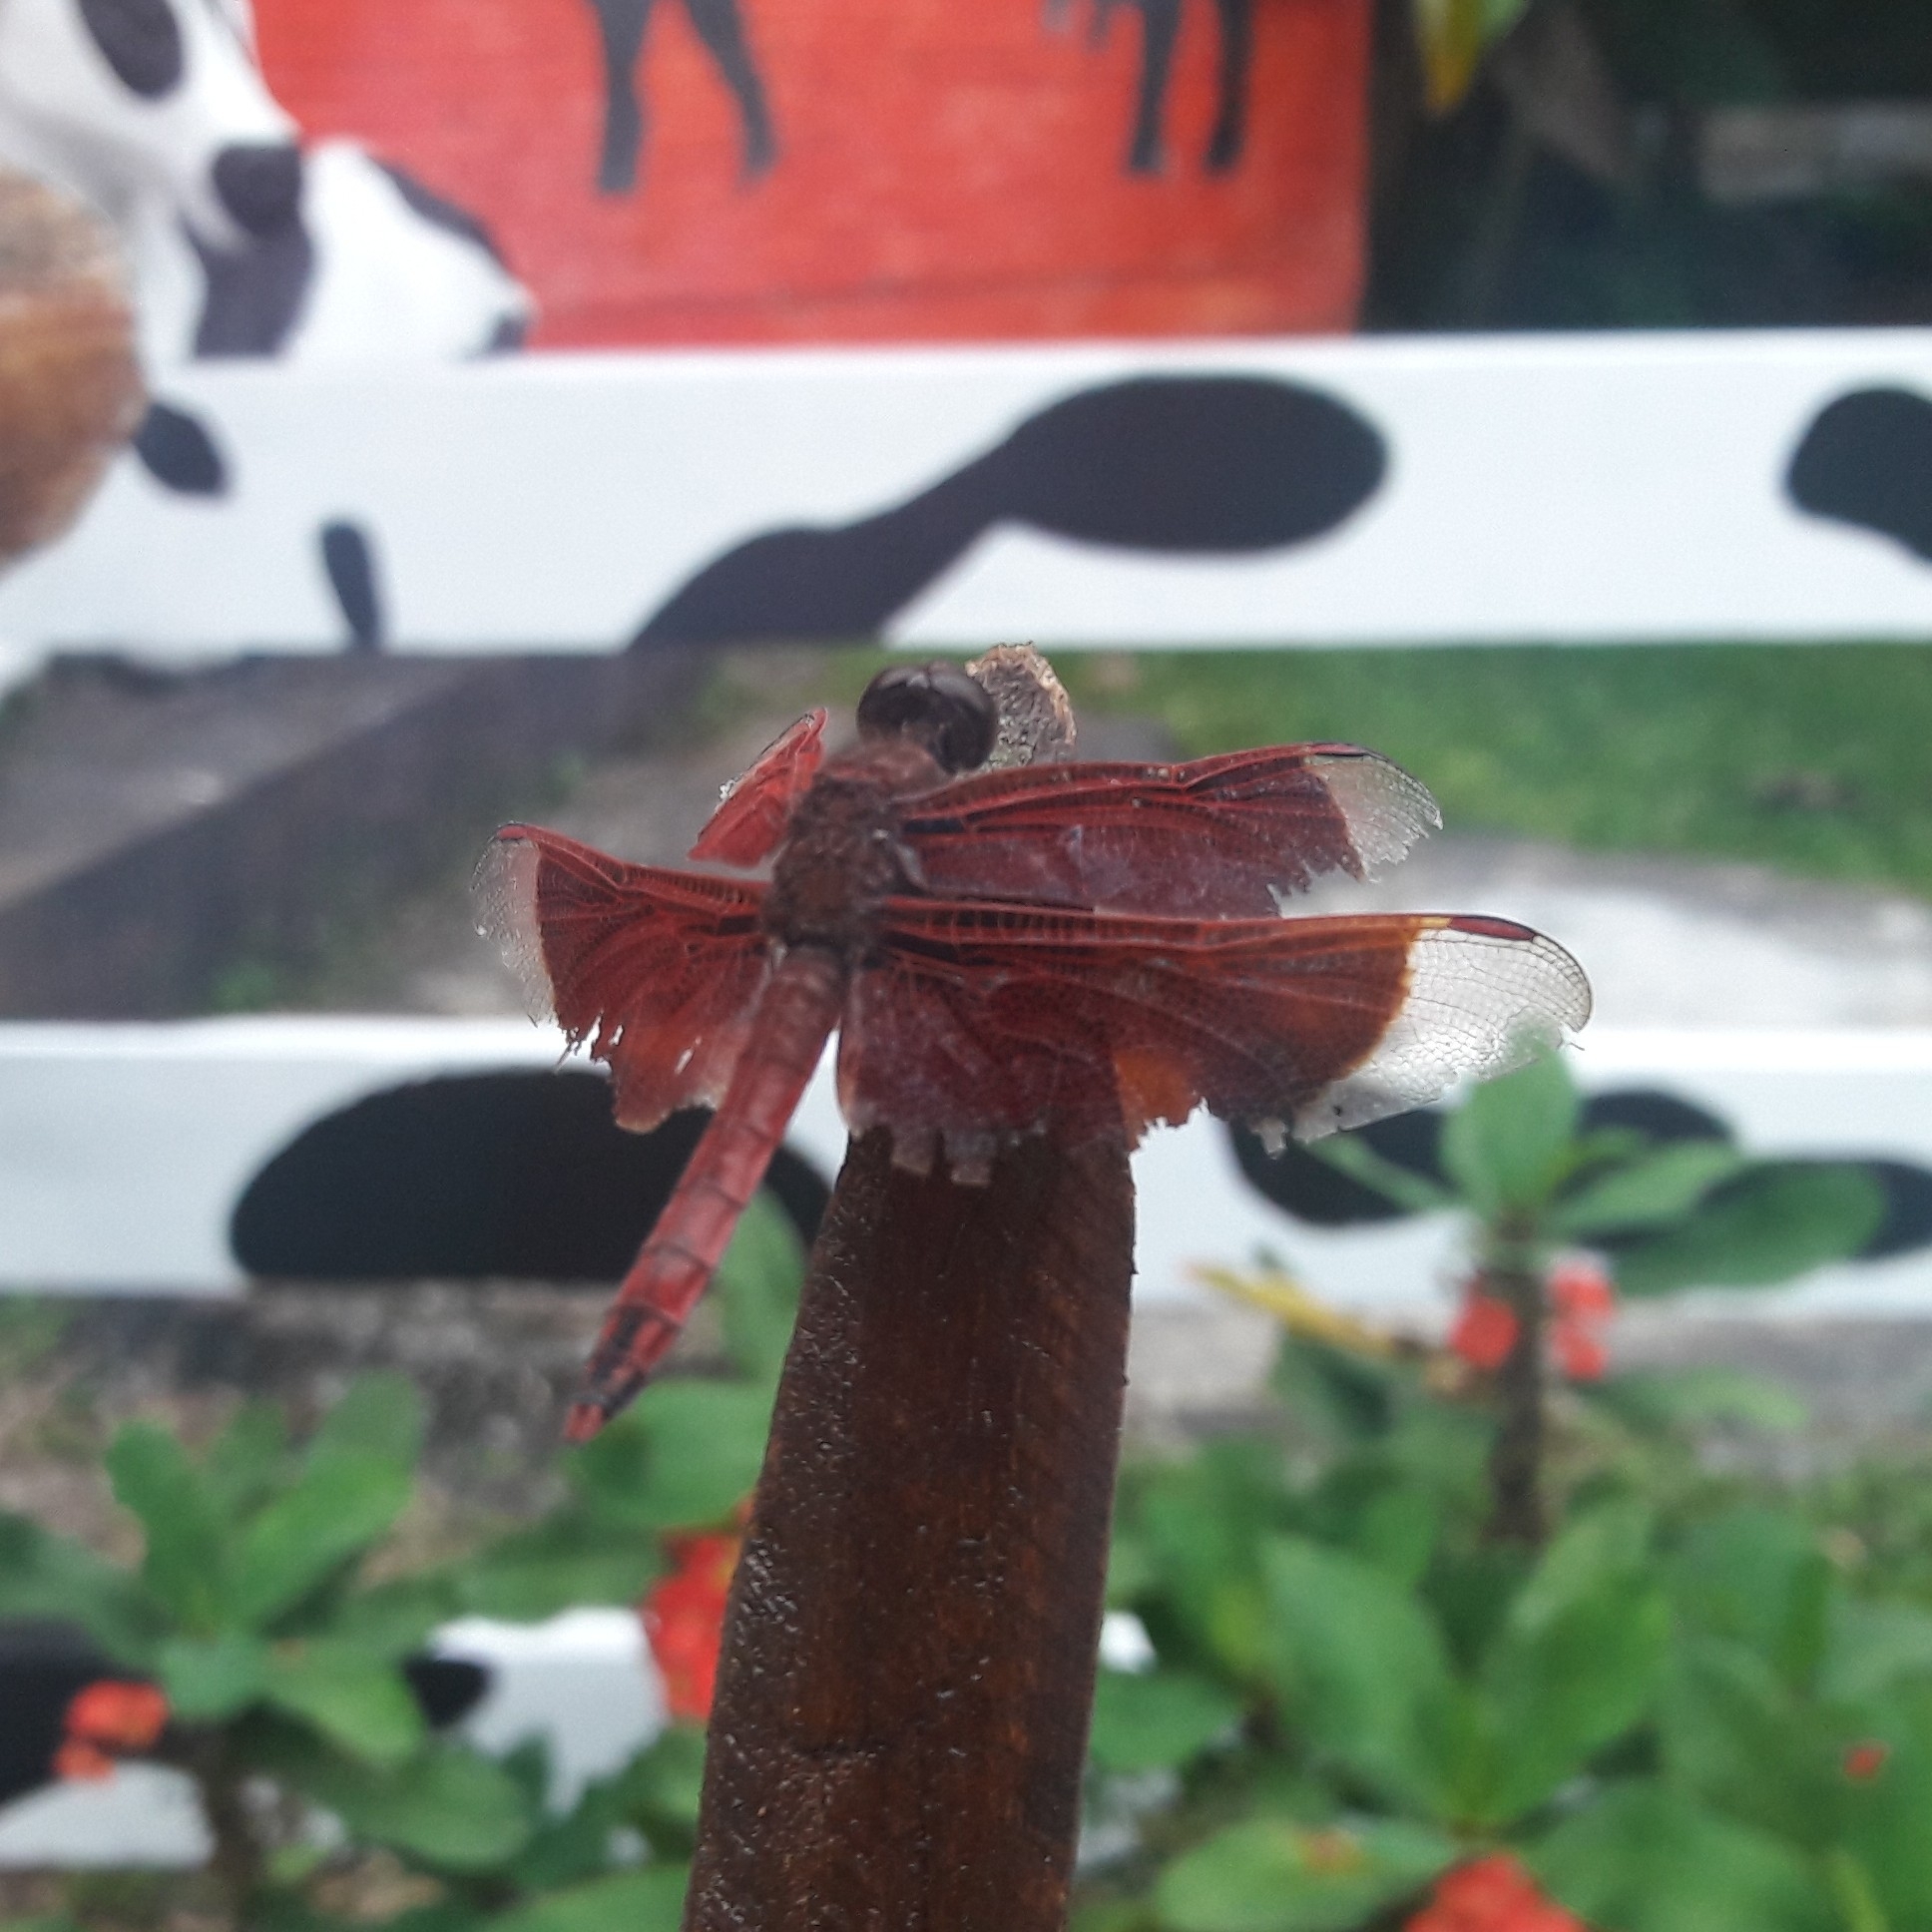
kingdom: Animalia
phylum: Arthropoda
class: Insecta
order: Odonata
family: Libellulidae
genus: Neurothemis
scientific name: Neurothemis ramburii
